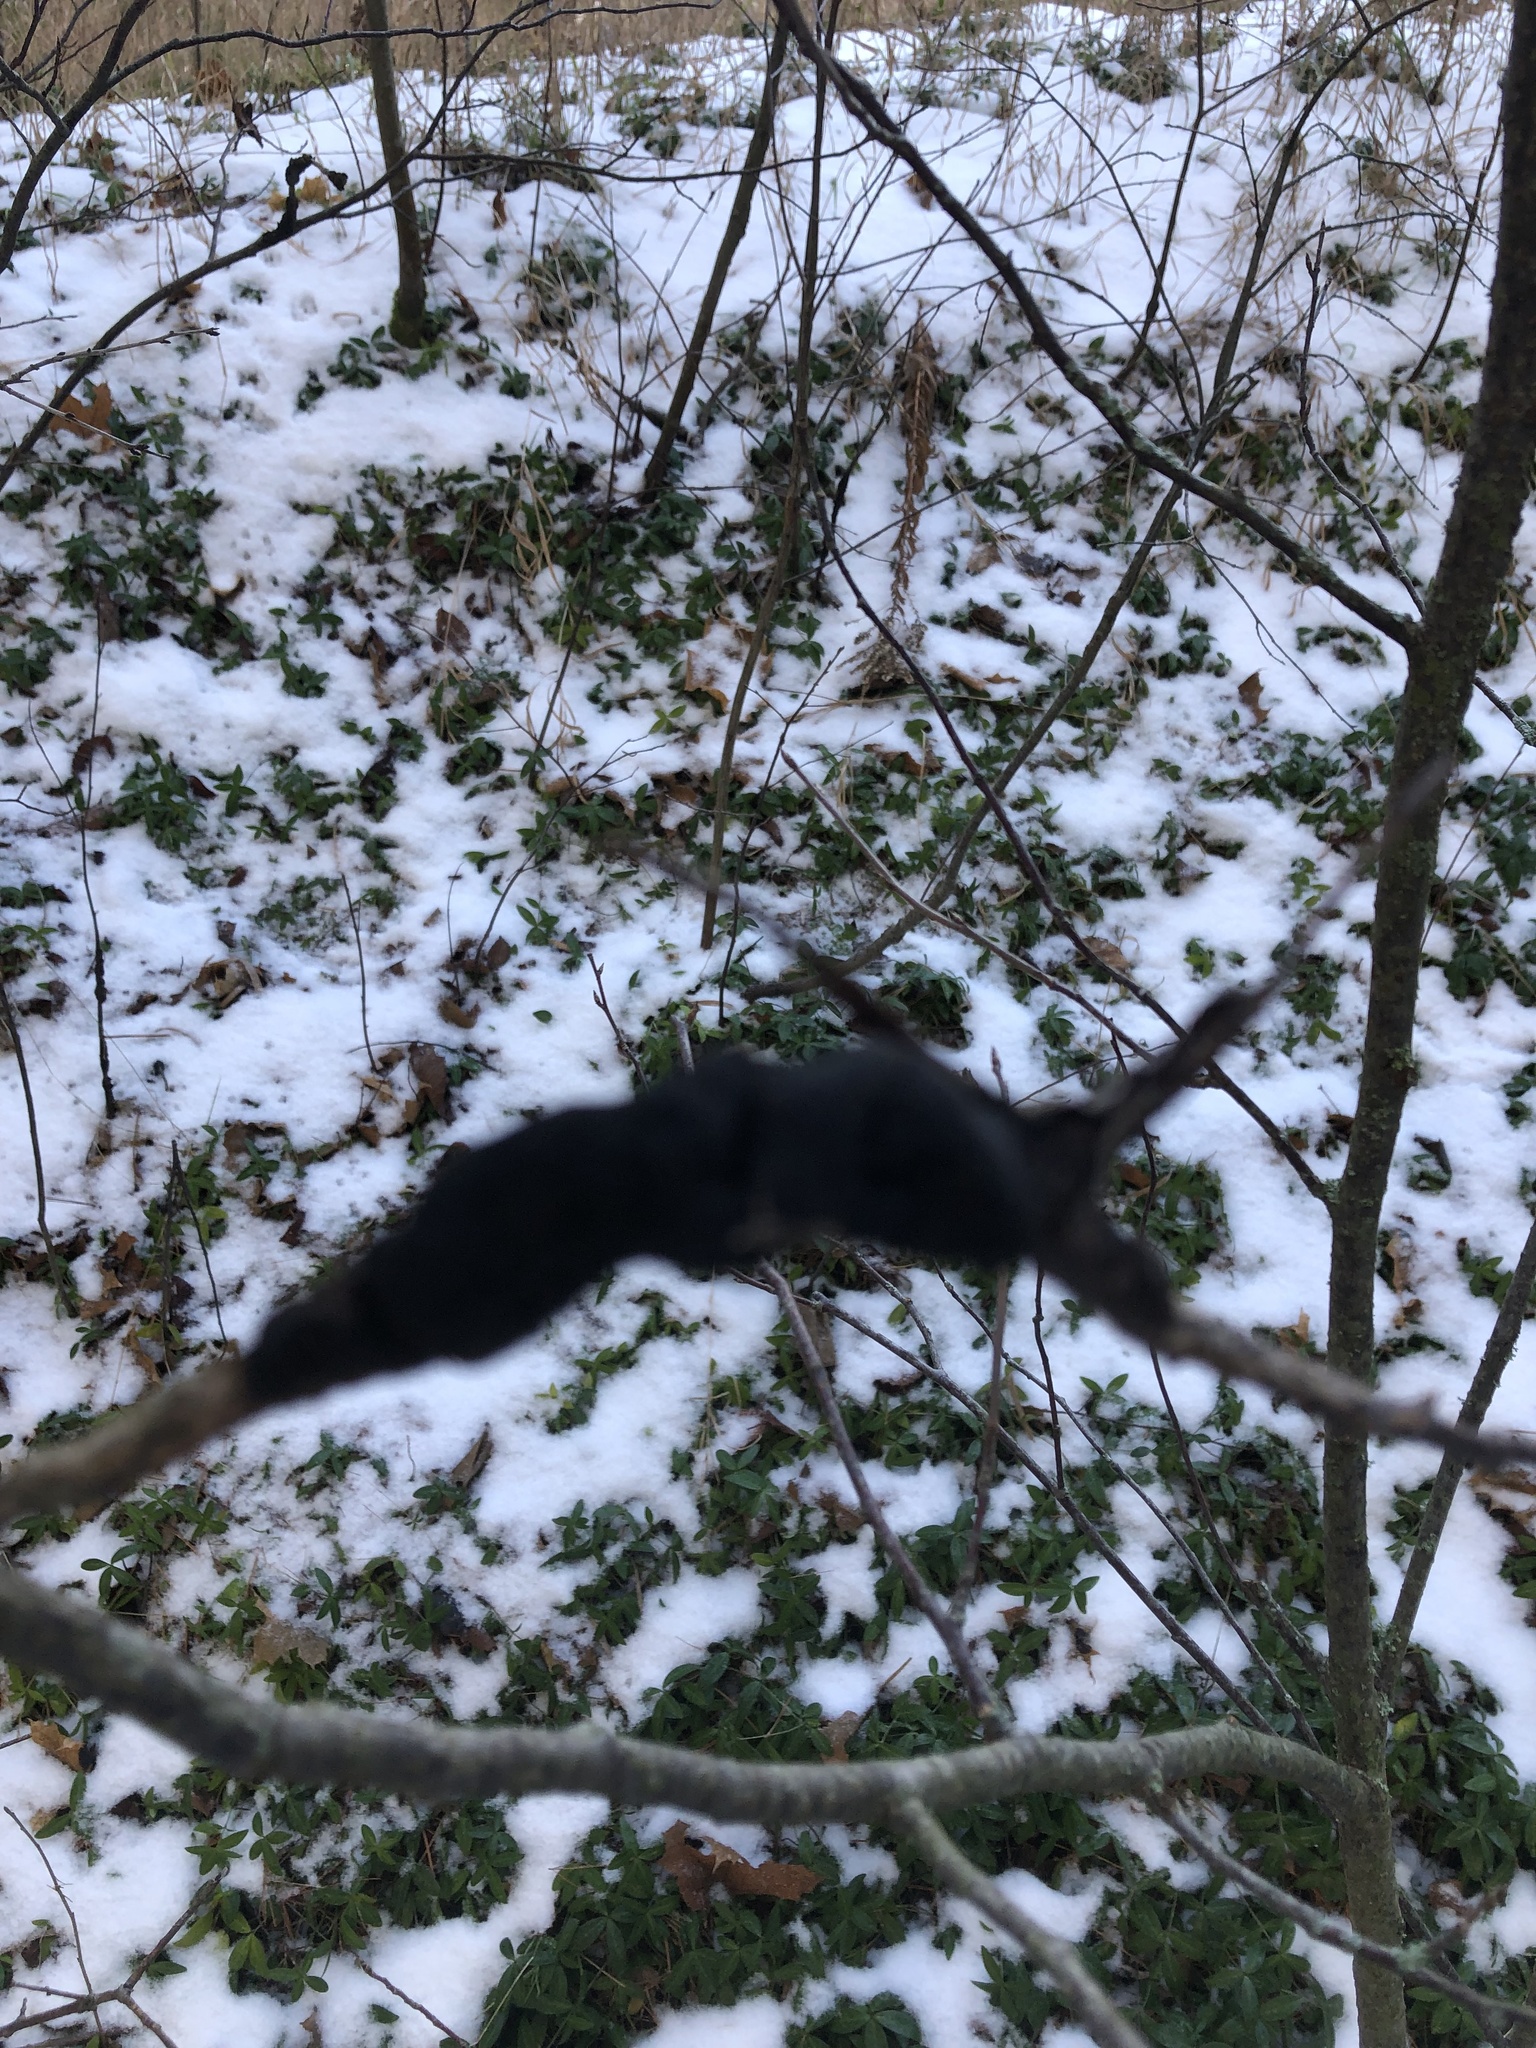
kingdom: Fungi
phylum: Ascomycota
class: Dothideomycetes
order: Venturiales
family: Venturiaceae
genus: Apiosporina
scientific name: Apiosporina morbosa
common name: Black knot
